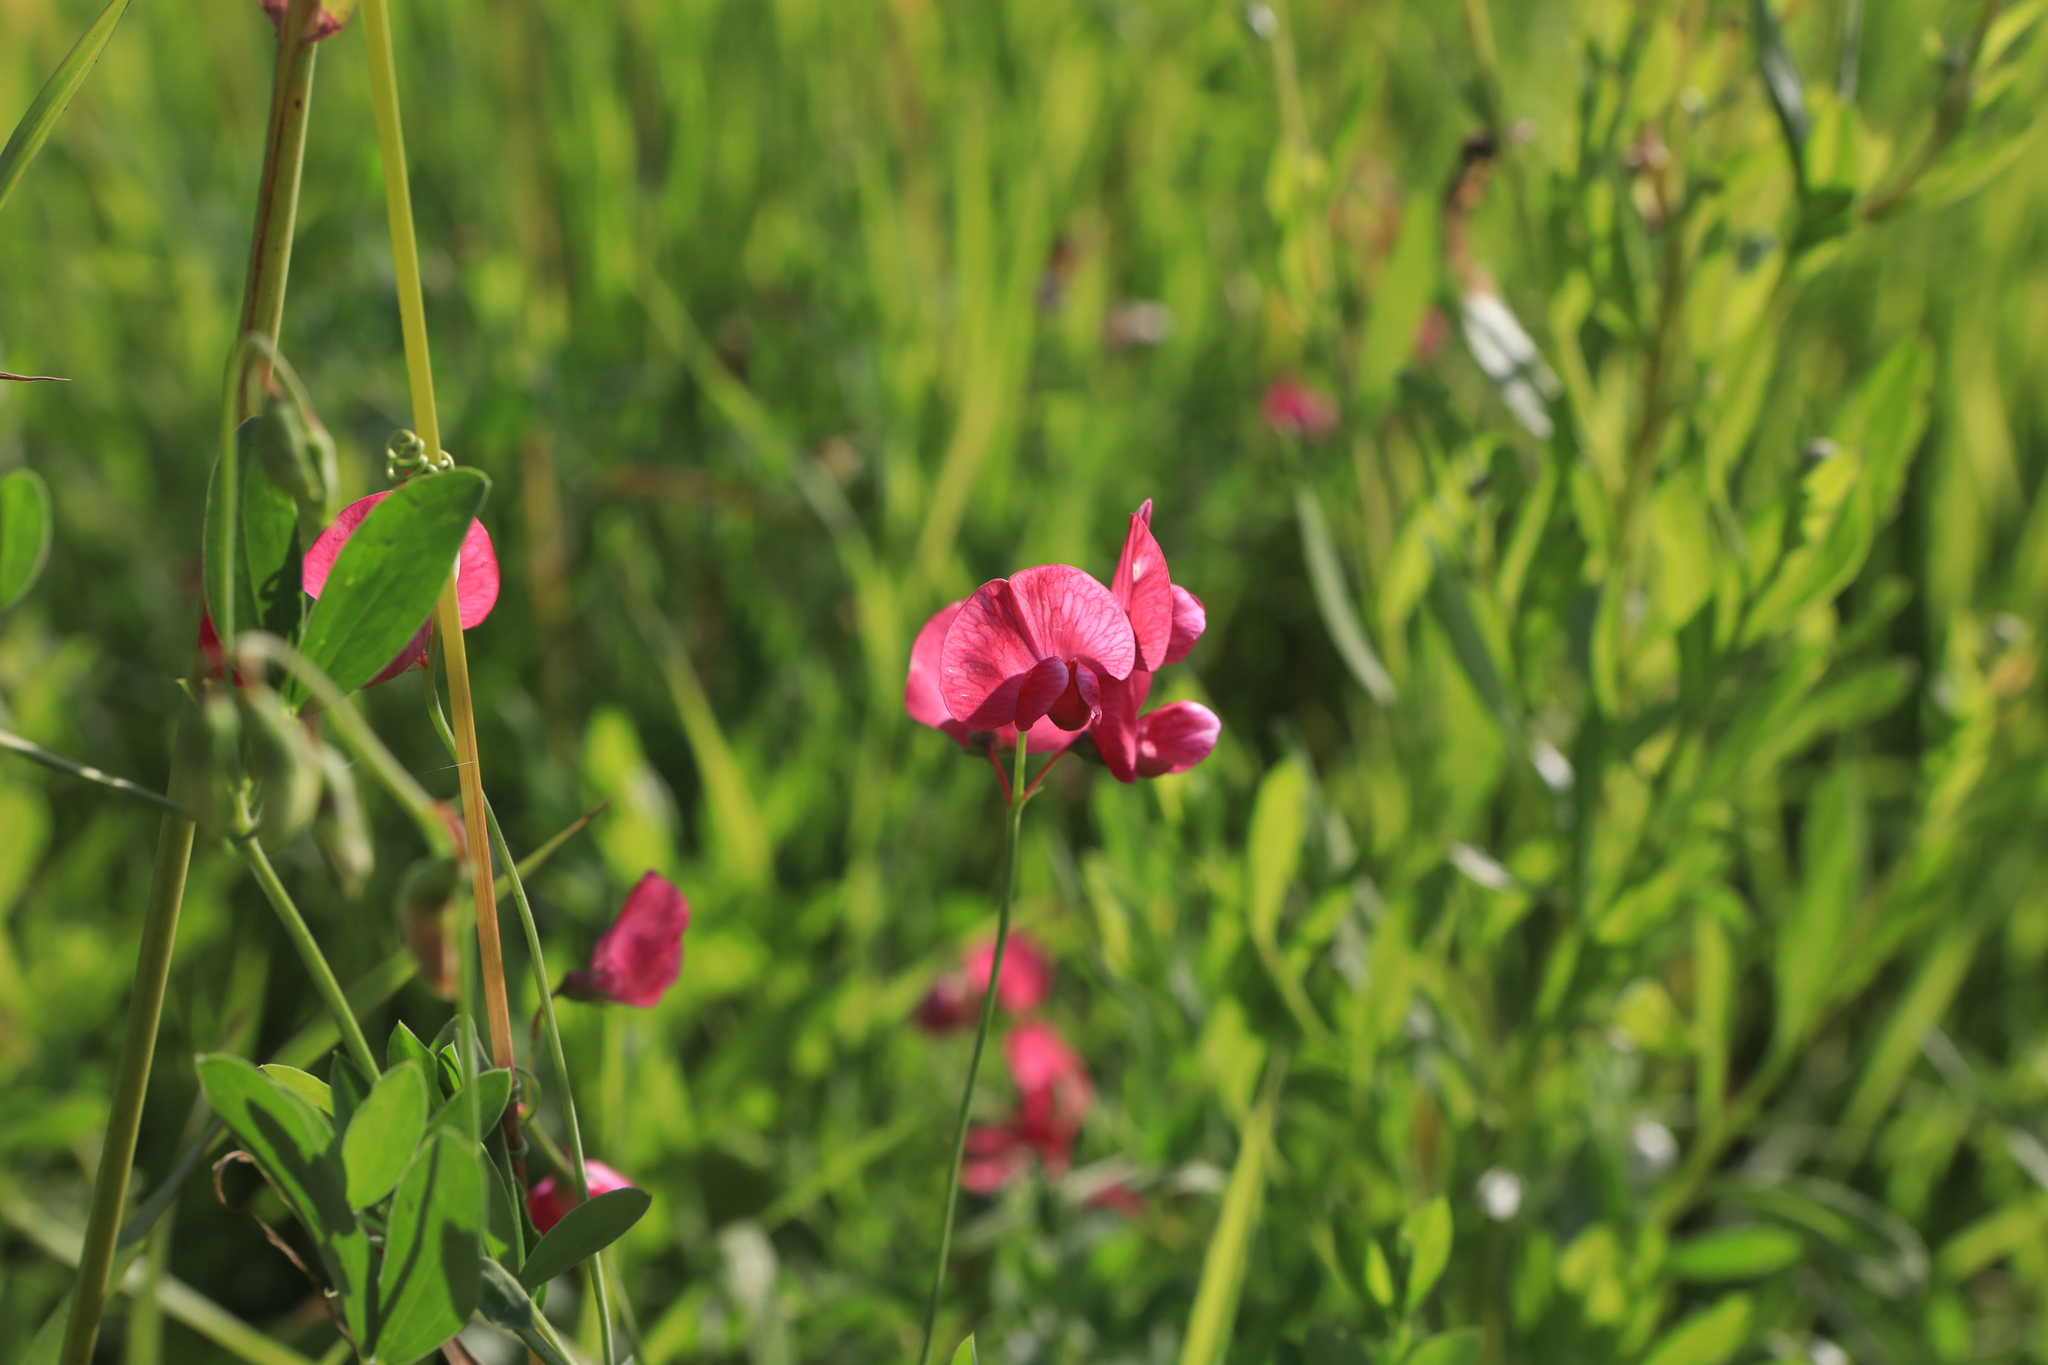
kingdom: Plantae
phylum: Tracheophyta
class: Magnoliopsida
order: Fabales
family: Fabaceae
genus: Lathyrus
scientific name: Lathyrus tuberosus
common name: Tuberous pea
